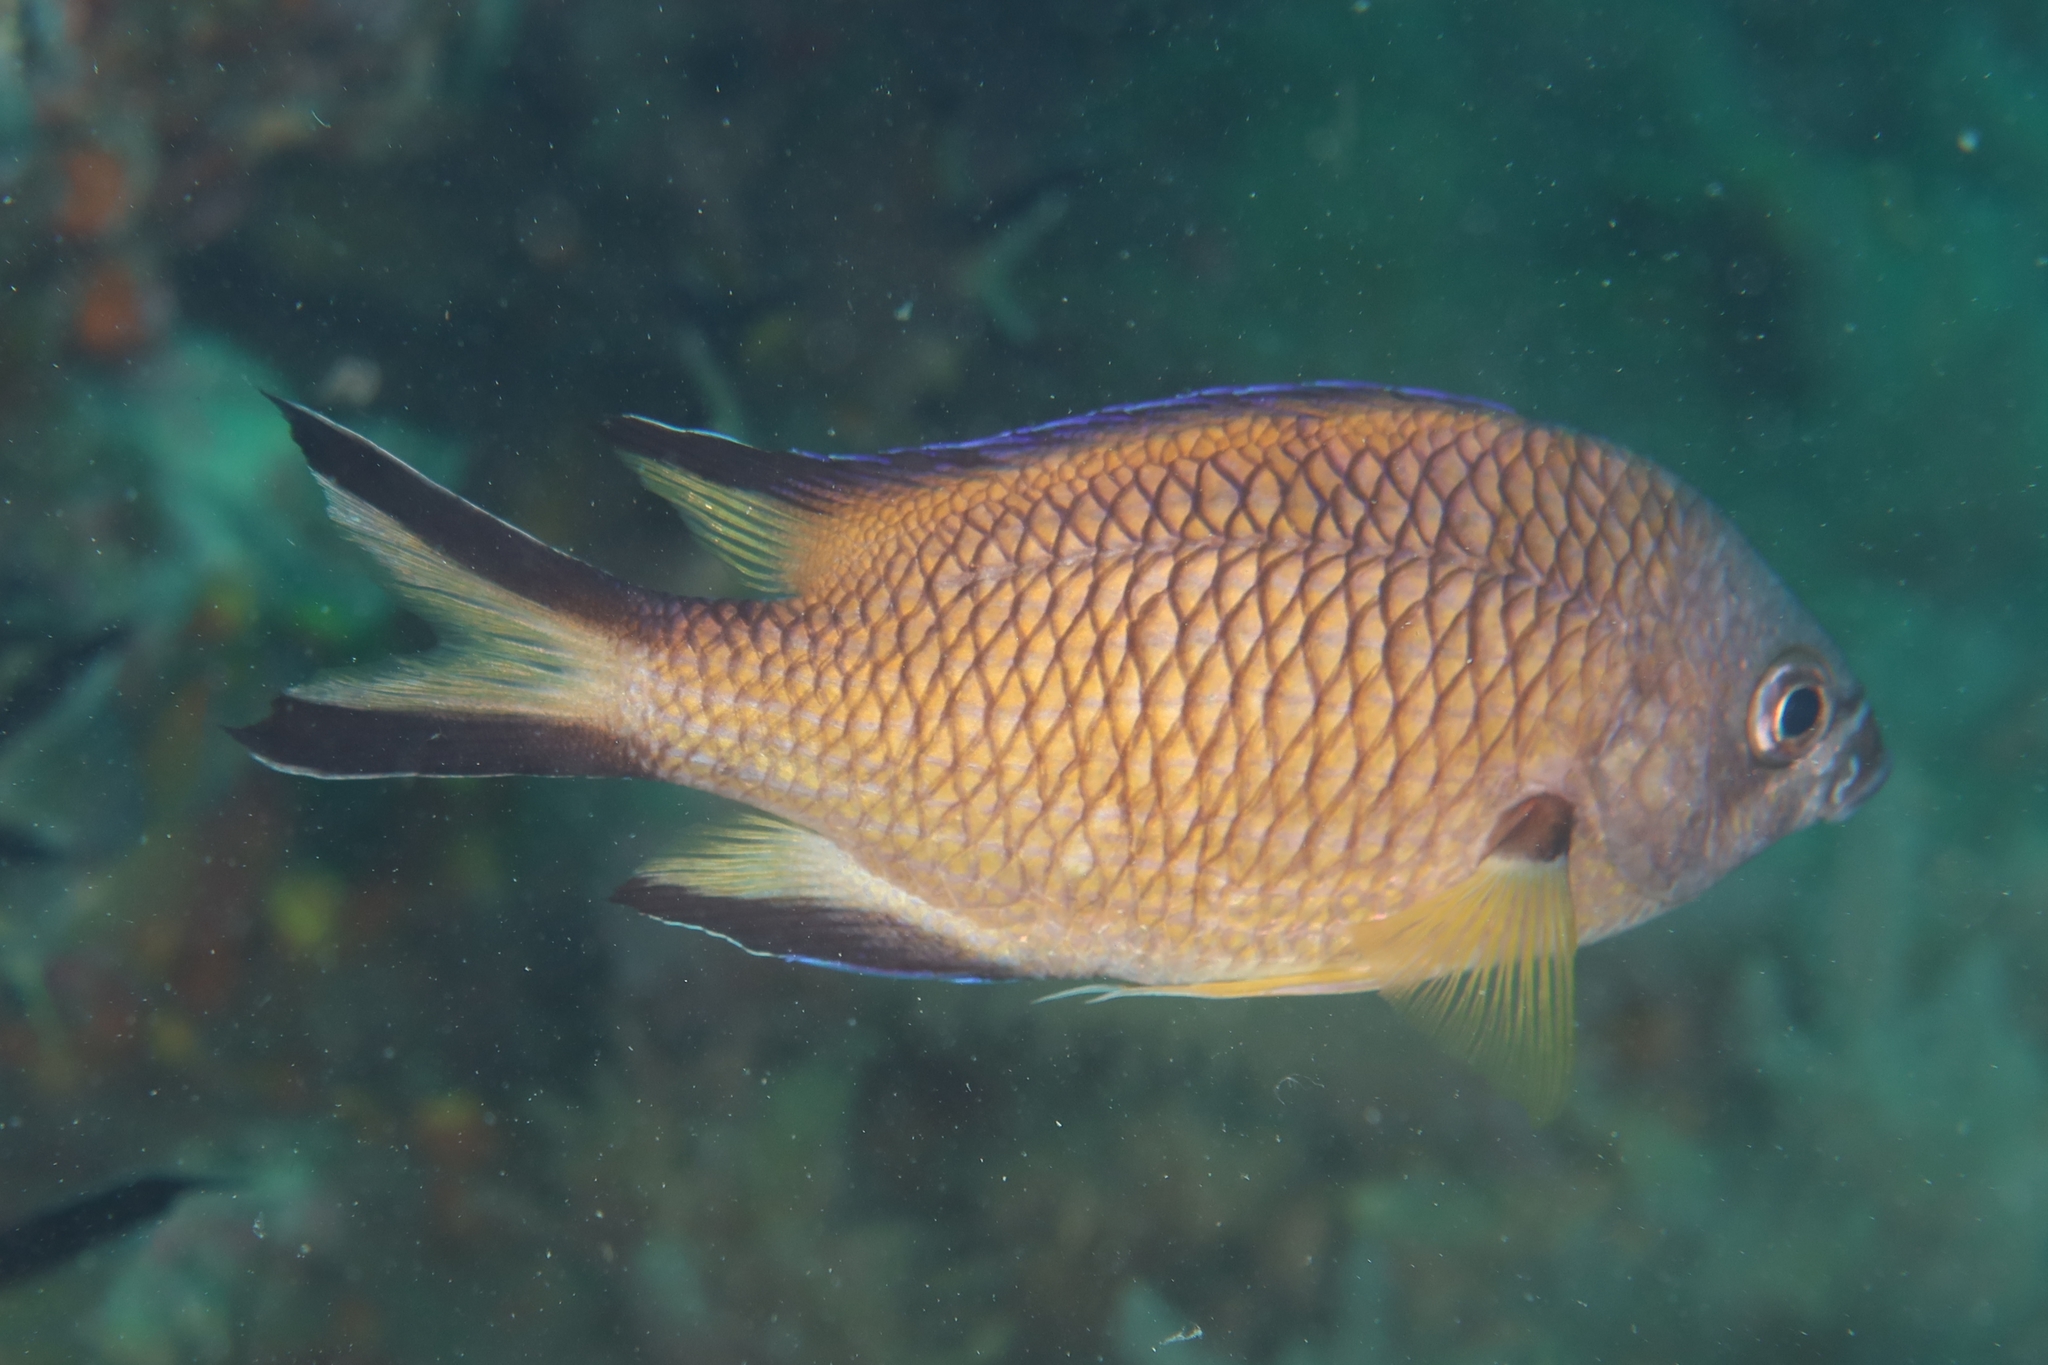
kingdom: Animalia
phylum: Chordata
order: Perciformes
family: Pomacentridae
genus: Chromis
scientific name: Chromis limbata
